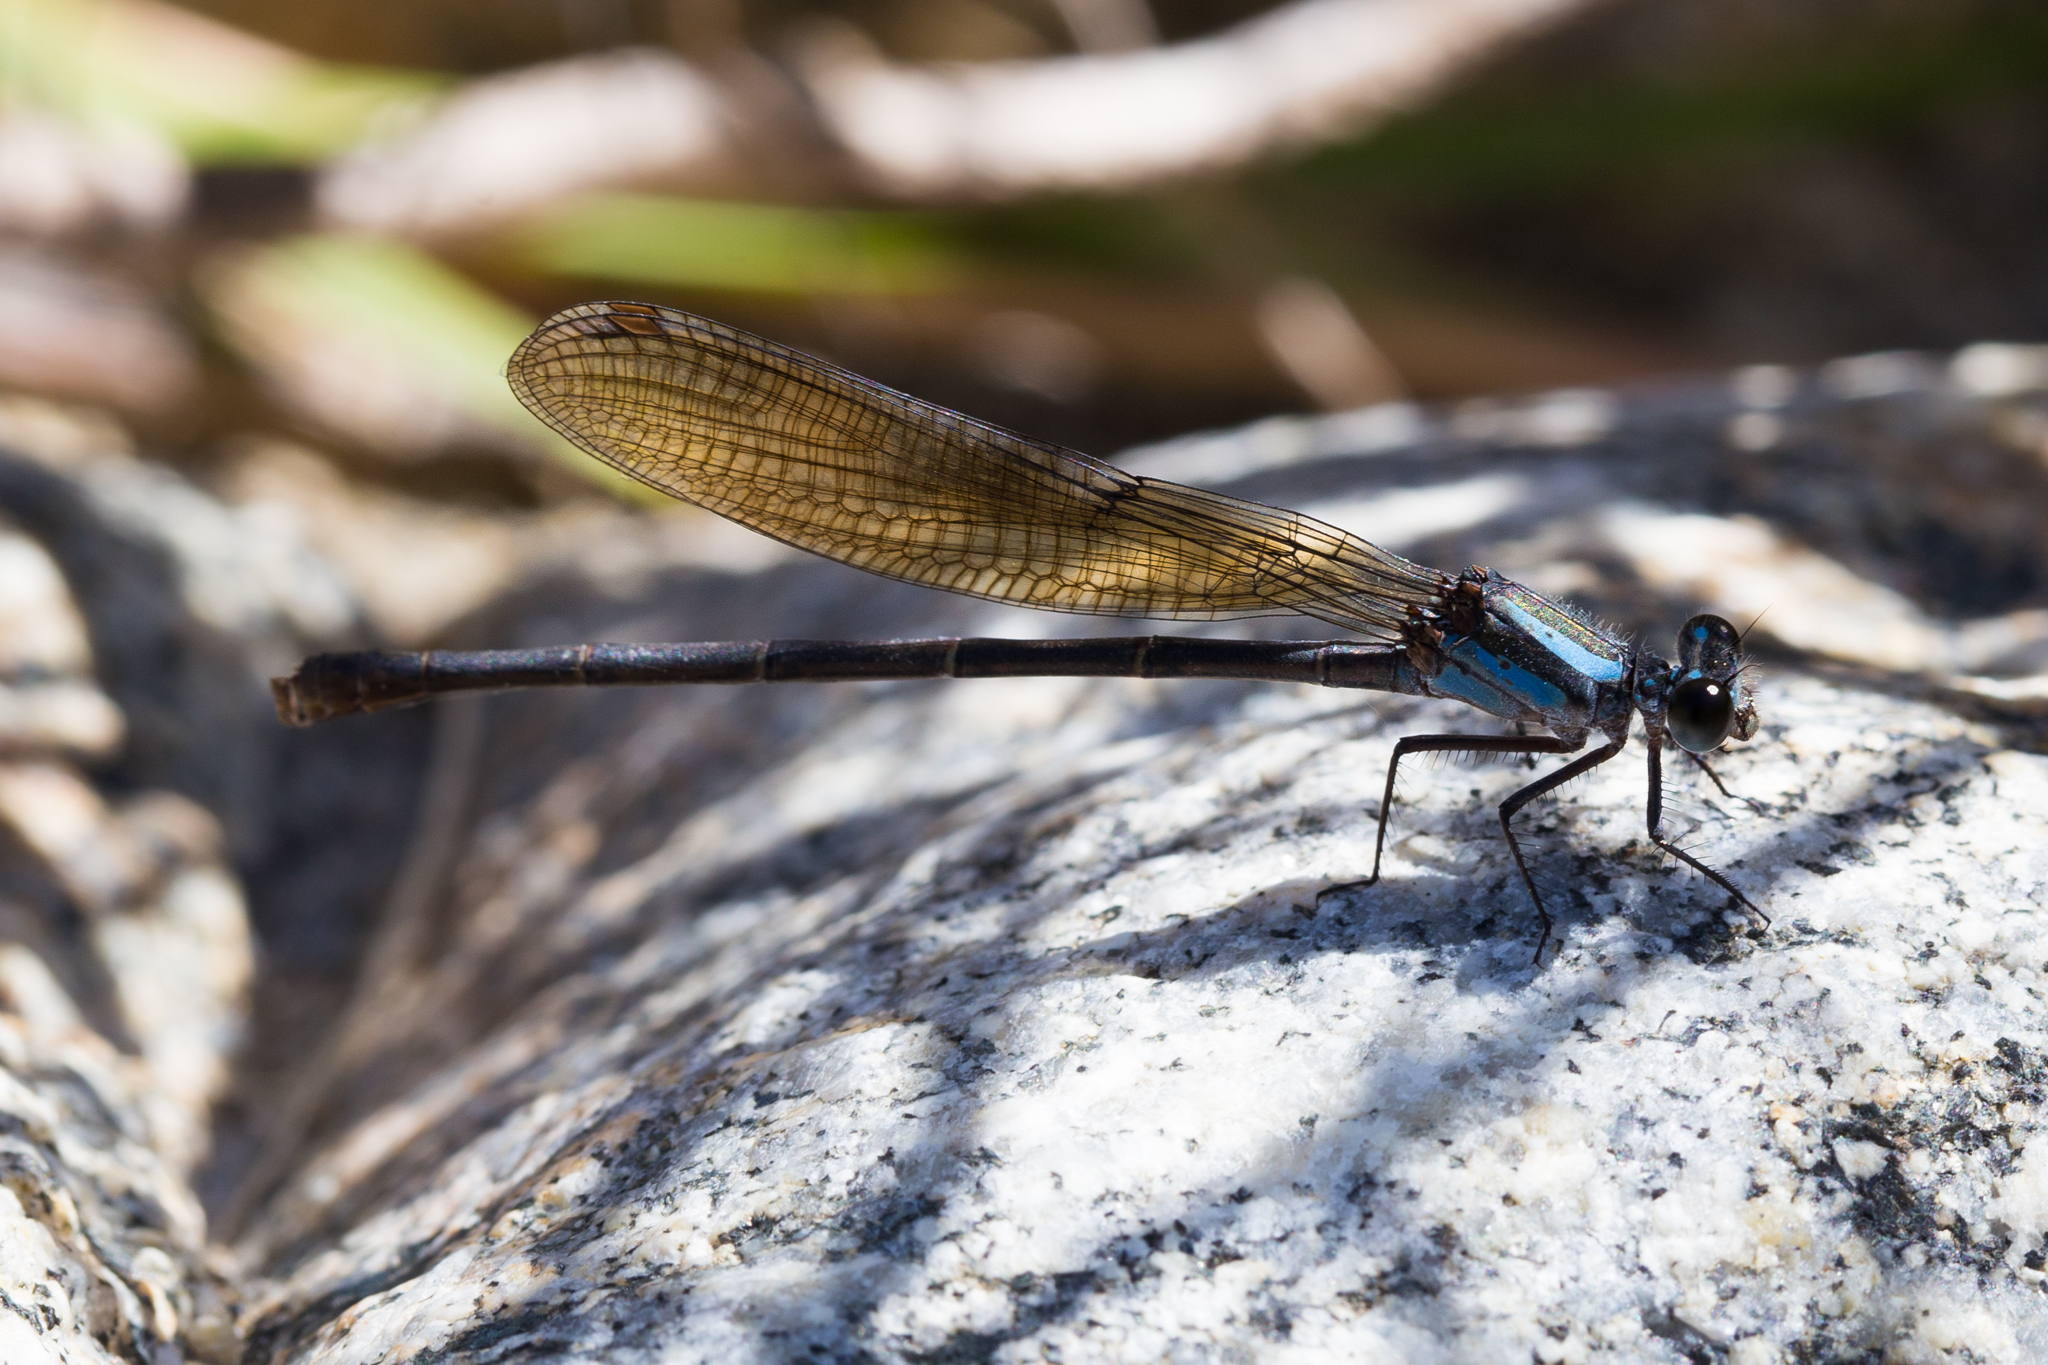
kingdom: Animalia
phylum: Arthropoda
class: Insecta
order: Odonata
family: Coenagrionidae
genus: Argia
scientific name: Argia tezpi
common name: Tezpi dancer
